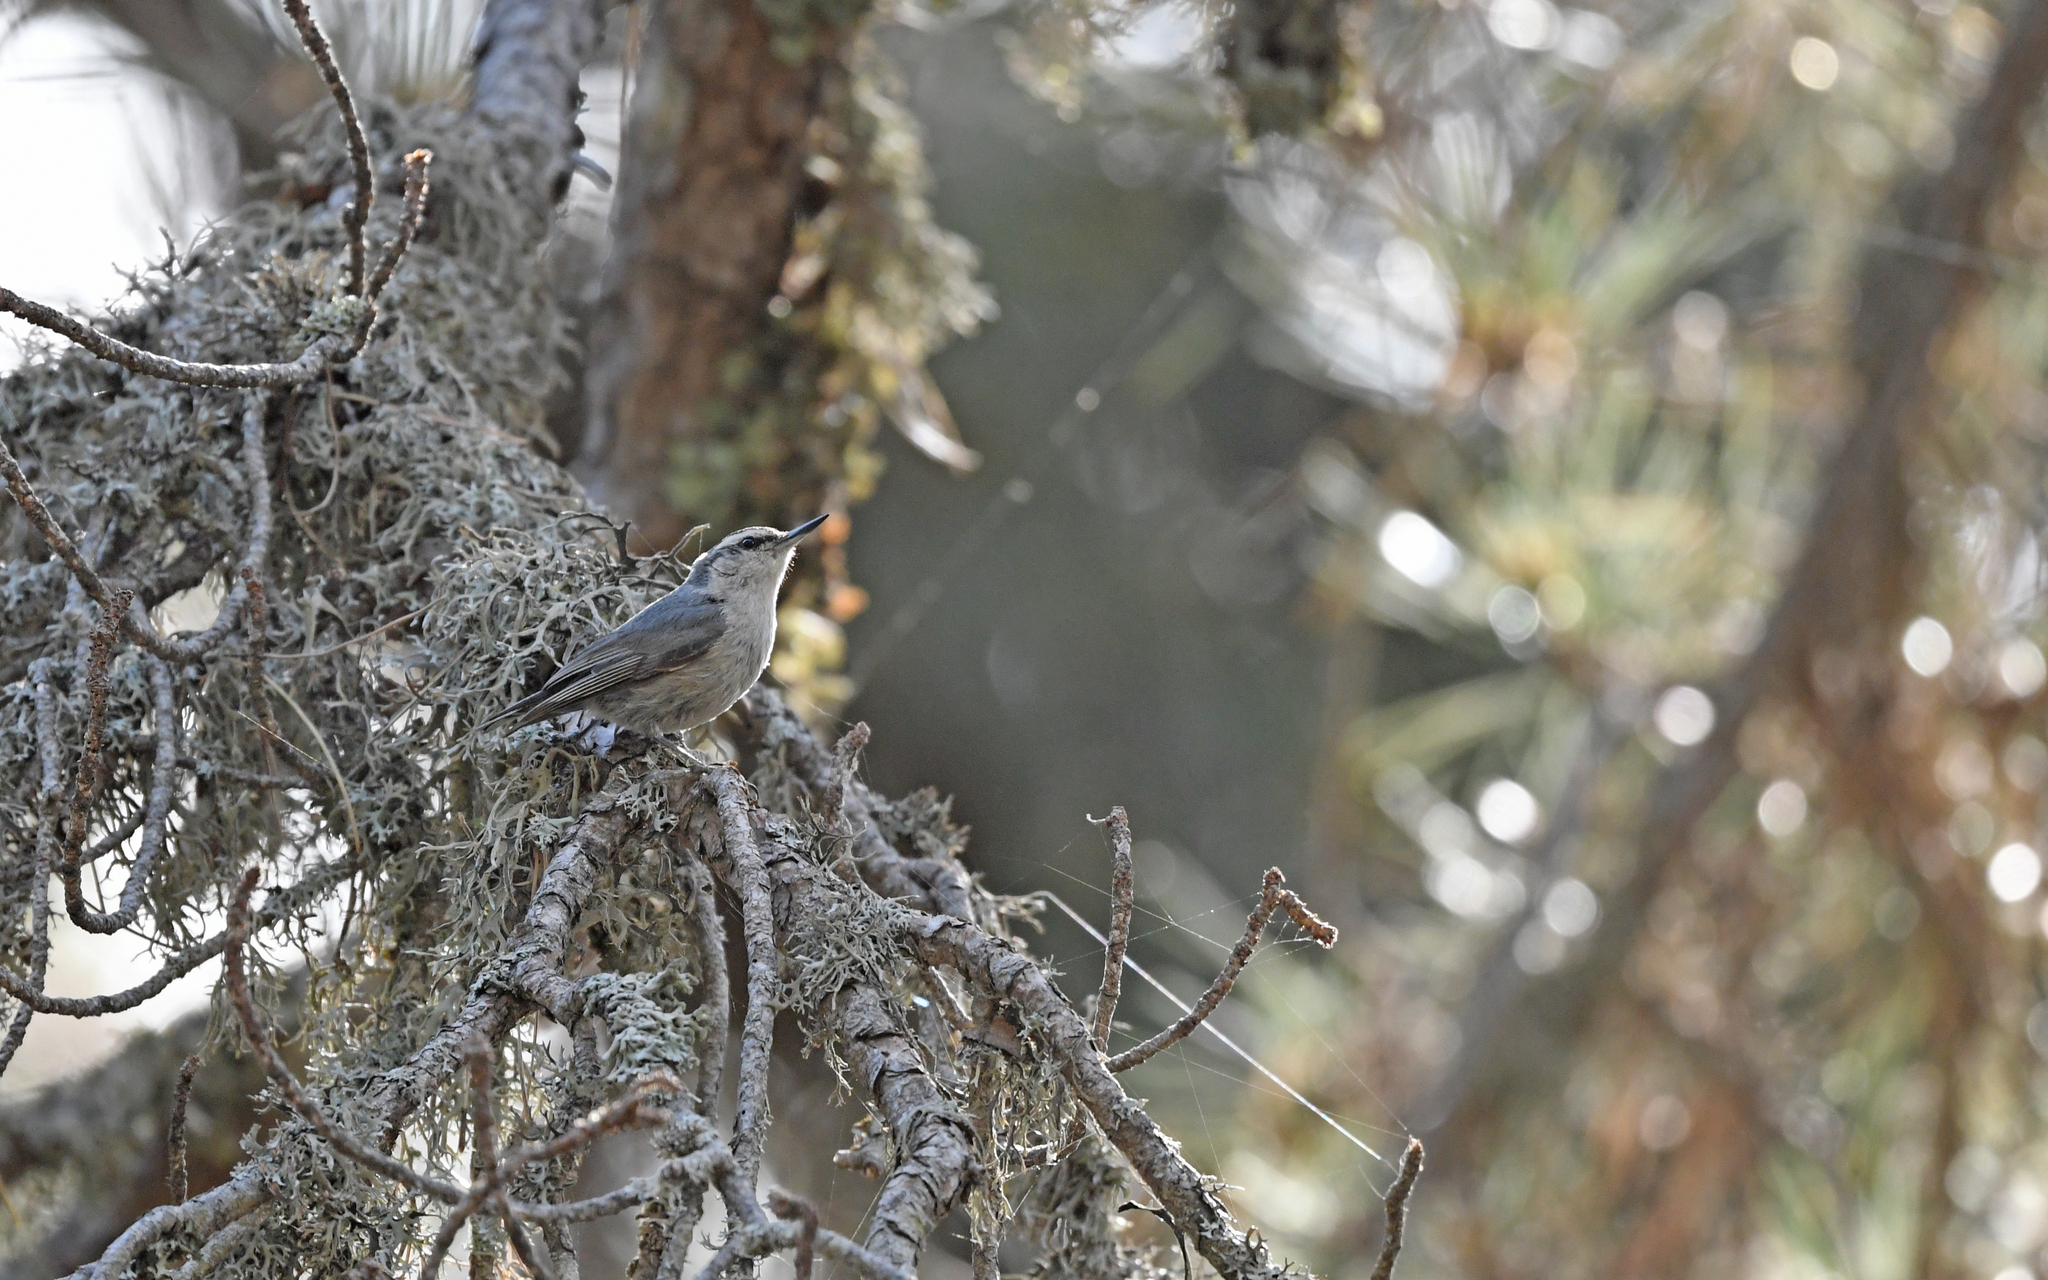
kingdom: Animalia
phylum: Chordata
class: Aves
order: Passeriformes
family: Sittidae
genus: Sitta
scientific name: Sitta whiteheadi
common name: Corsican nuthatch
